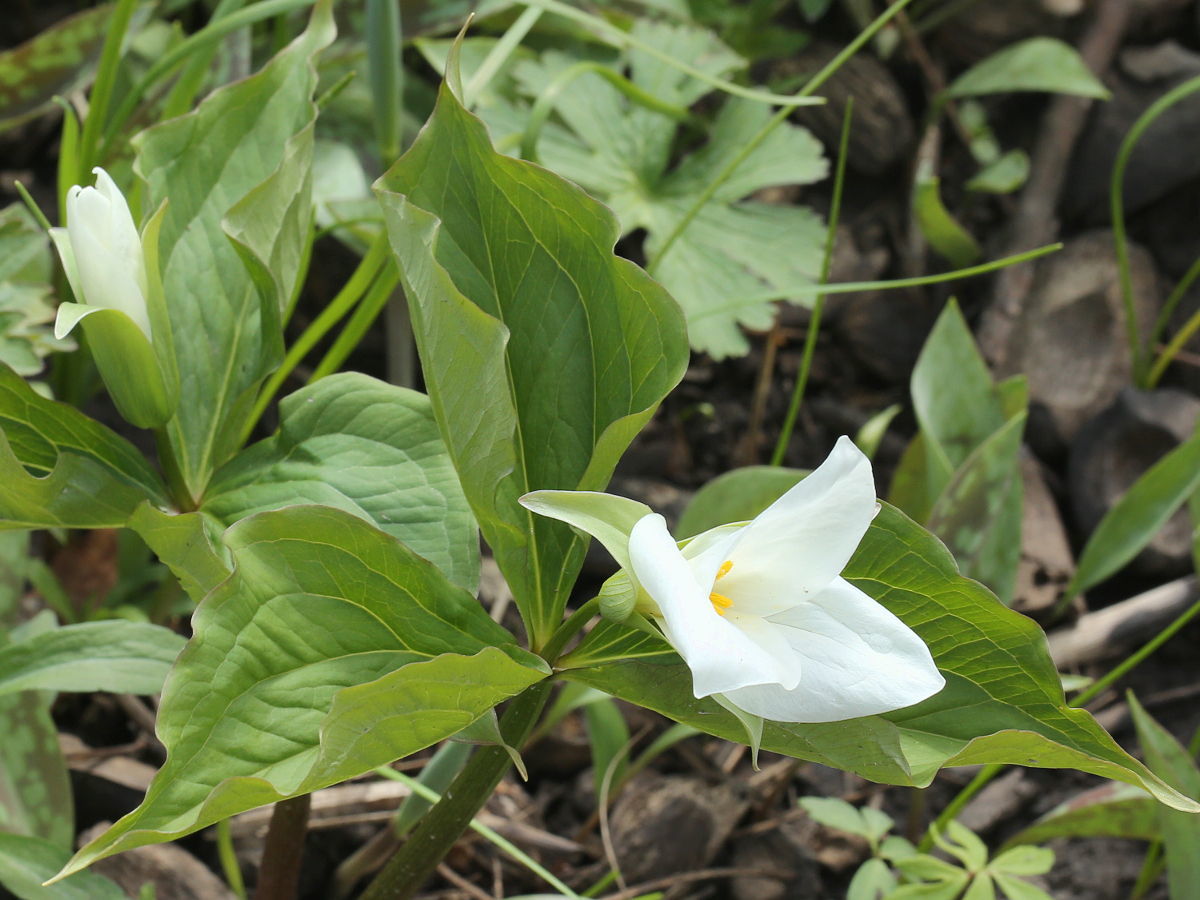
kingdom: Plantae
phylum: Tracheophyta
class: Liliopsida
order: Liliales
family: Melanthiaceae
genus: Trillium
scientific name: Trillium grandiflorum
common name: Great white trillium
